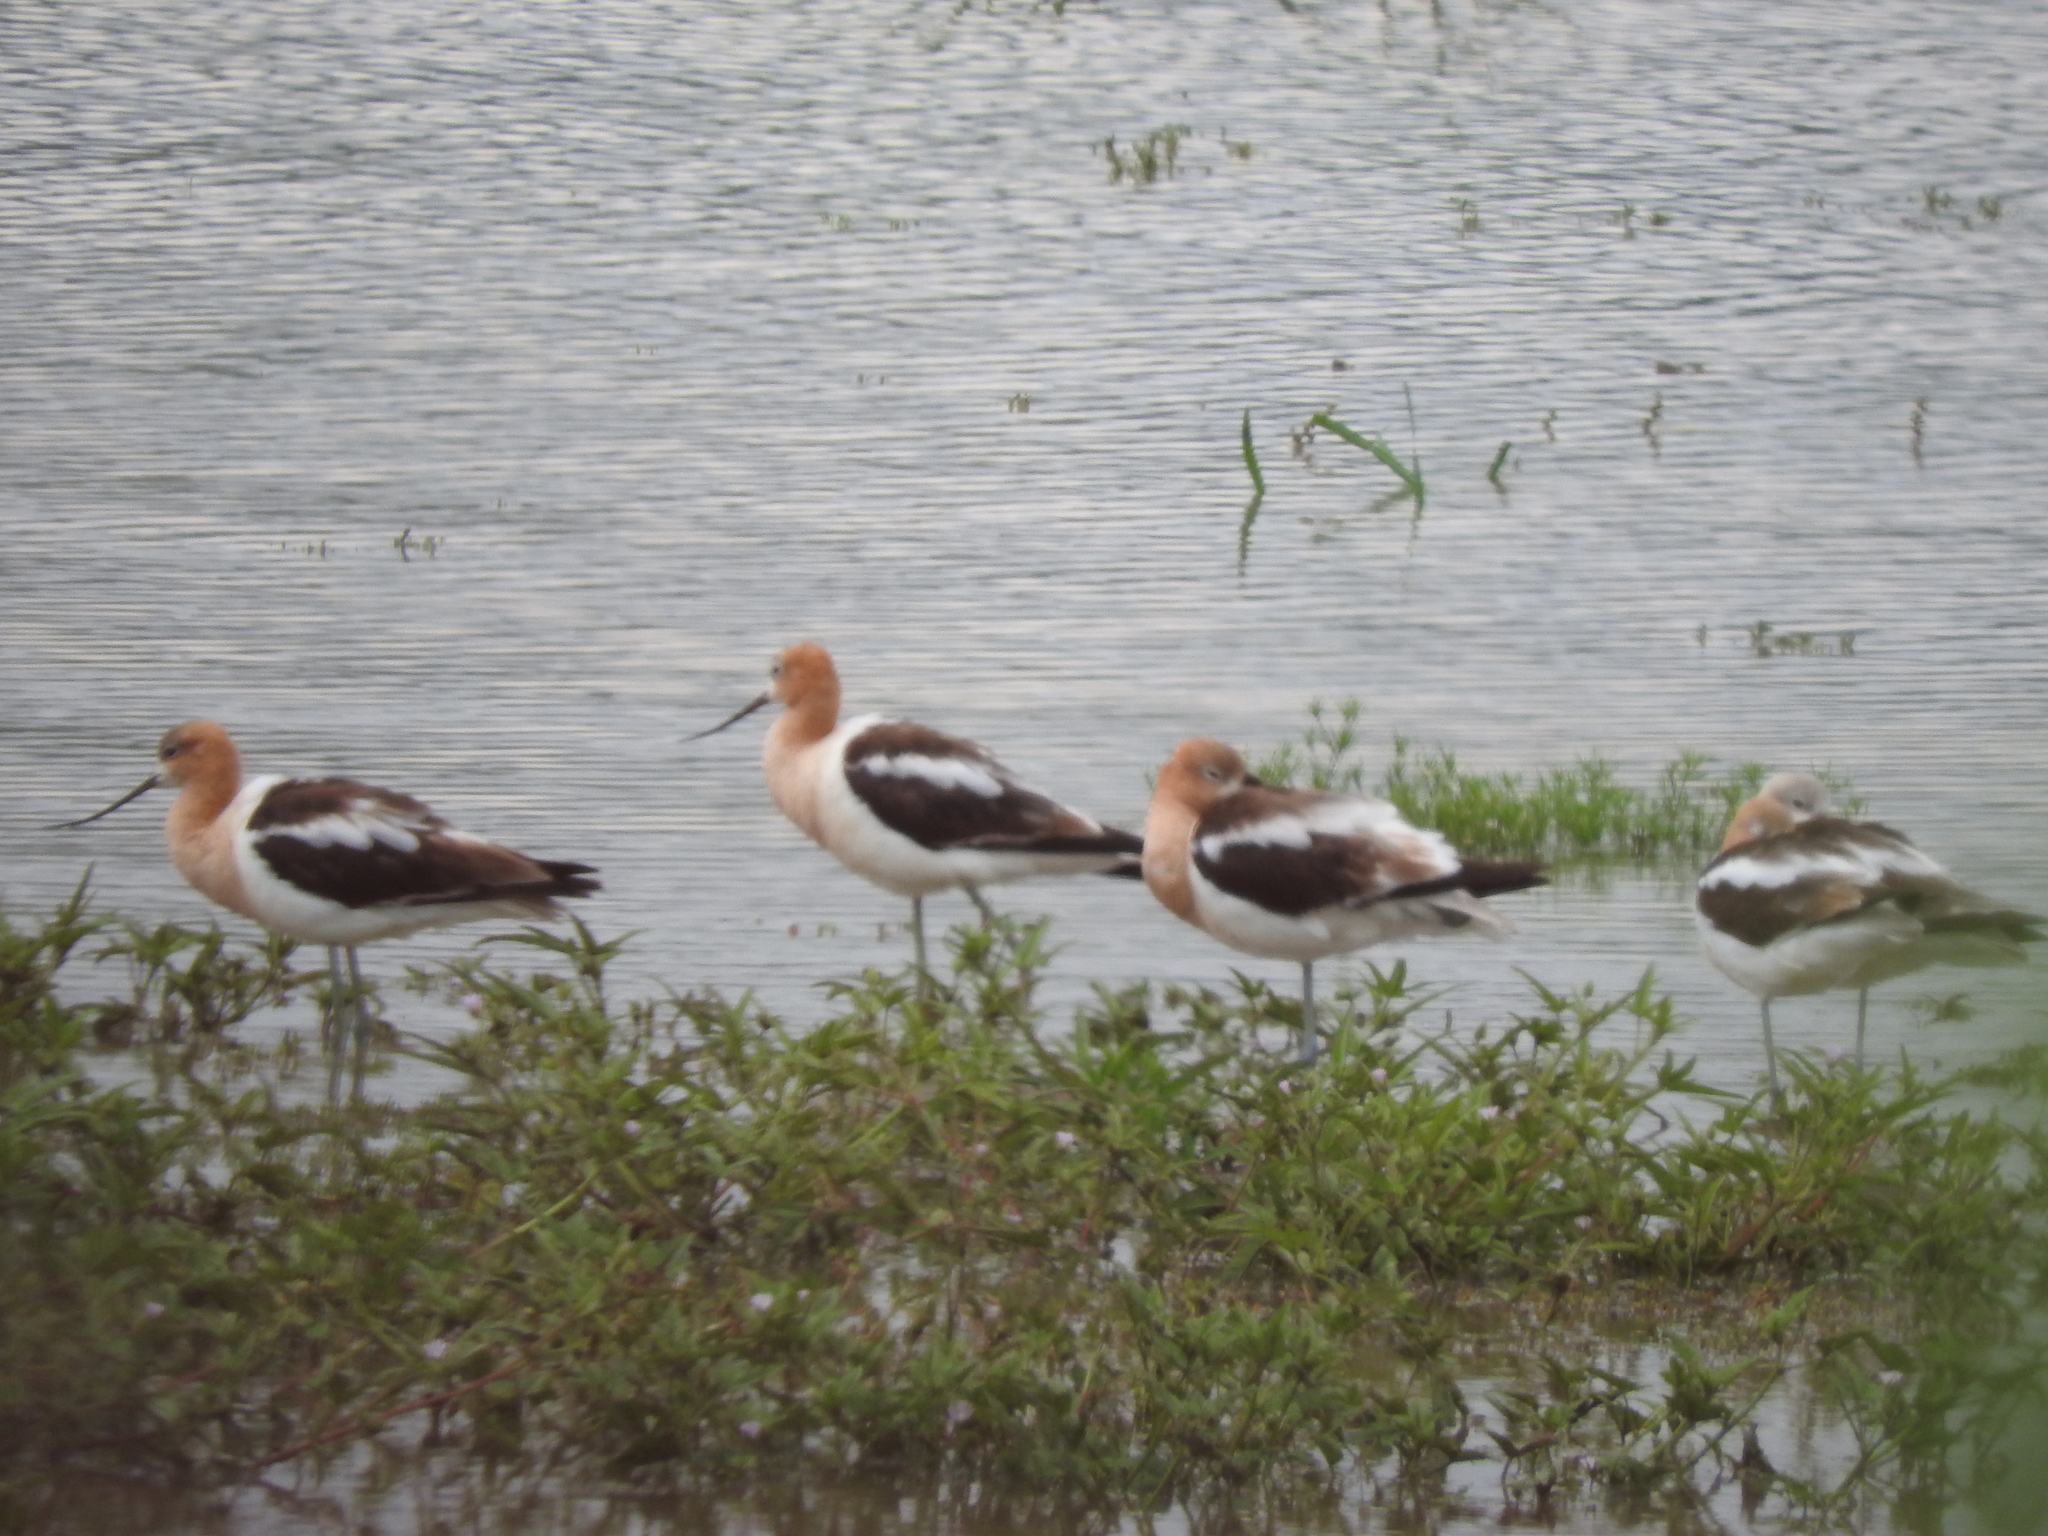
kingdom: Animalia
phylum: Chordata
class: Aves
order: Charadriiformes
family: Recurvirostridae
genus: Recurvirostra
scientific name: Recurvirostra americana
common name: American avocet
